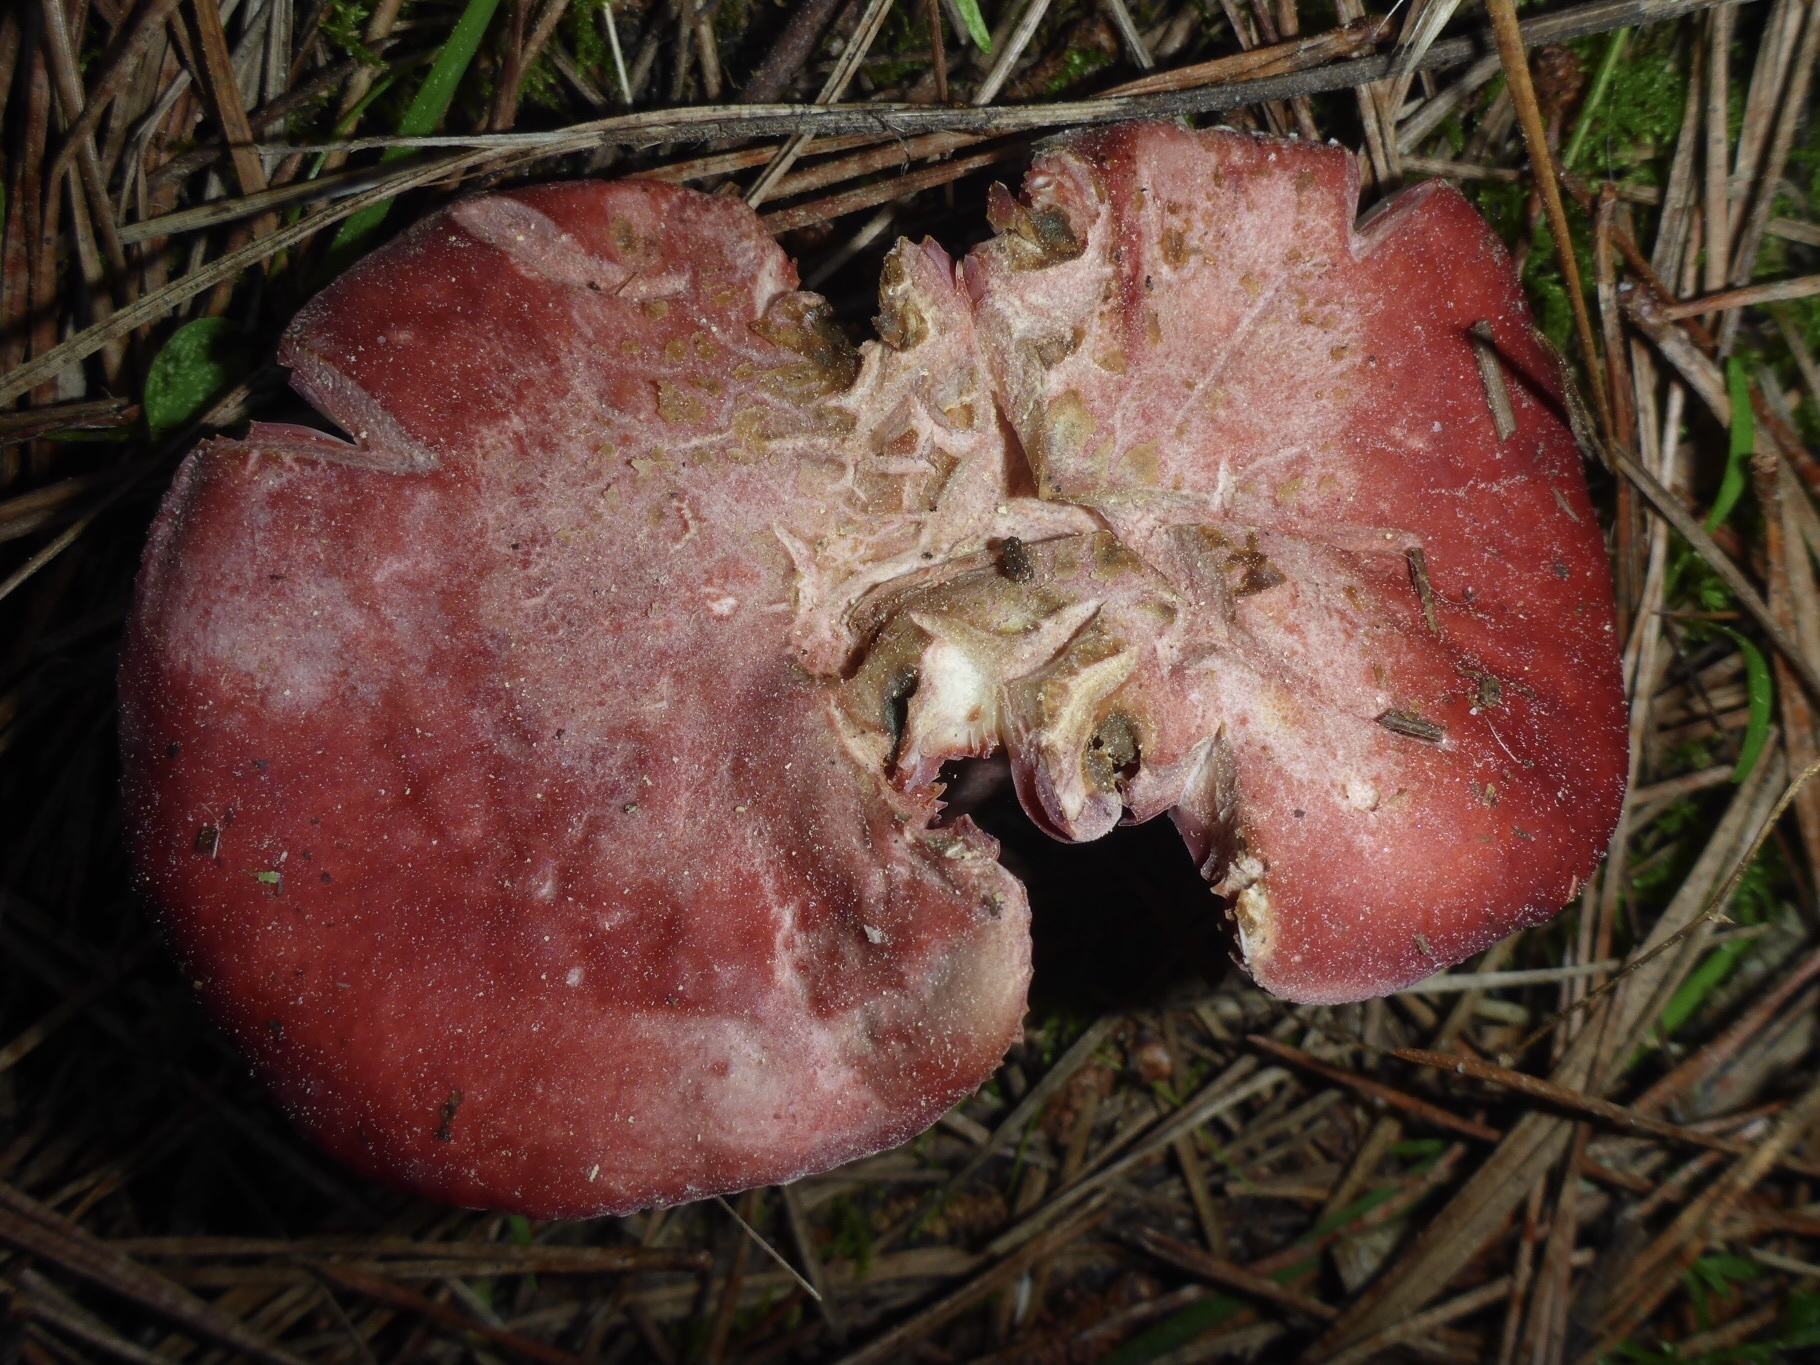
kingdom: Fungi
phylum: Basidiomycota
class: Agaricomycetes
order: Russulales
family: Russulaceae
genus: Russula
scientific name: Russula rhodocephala
